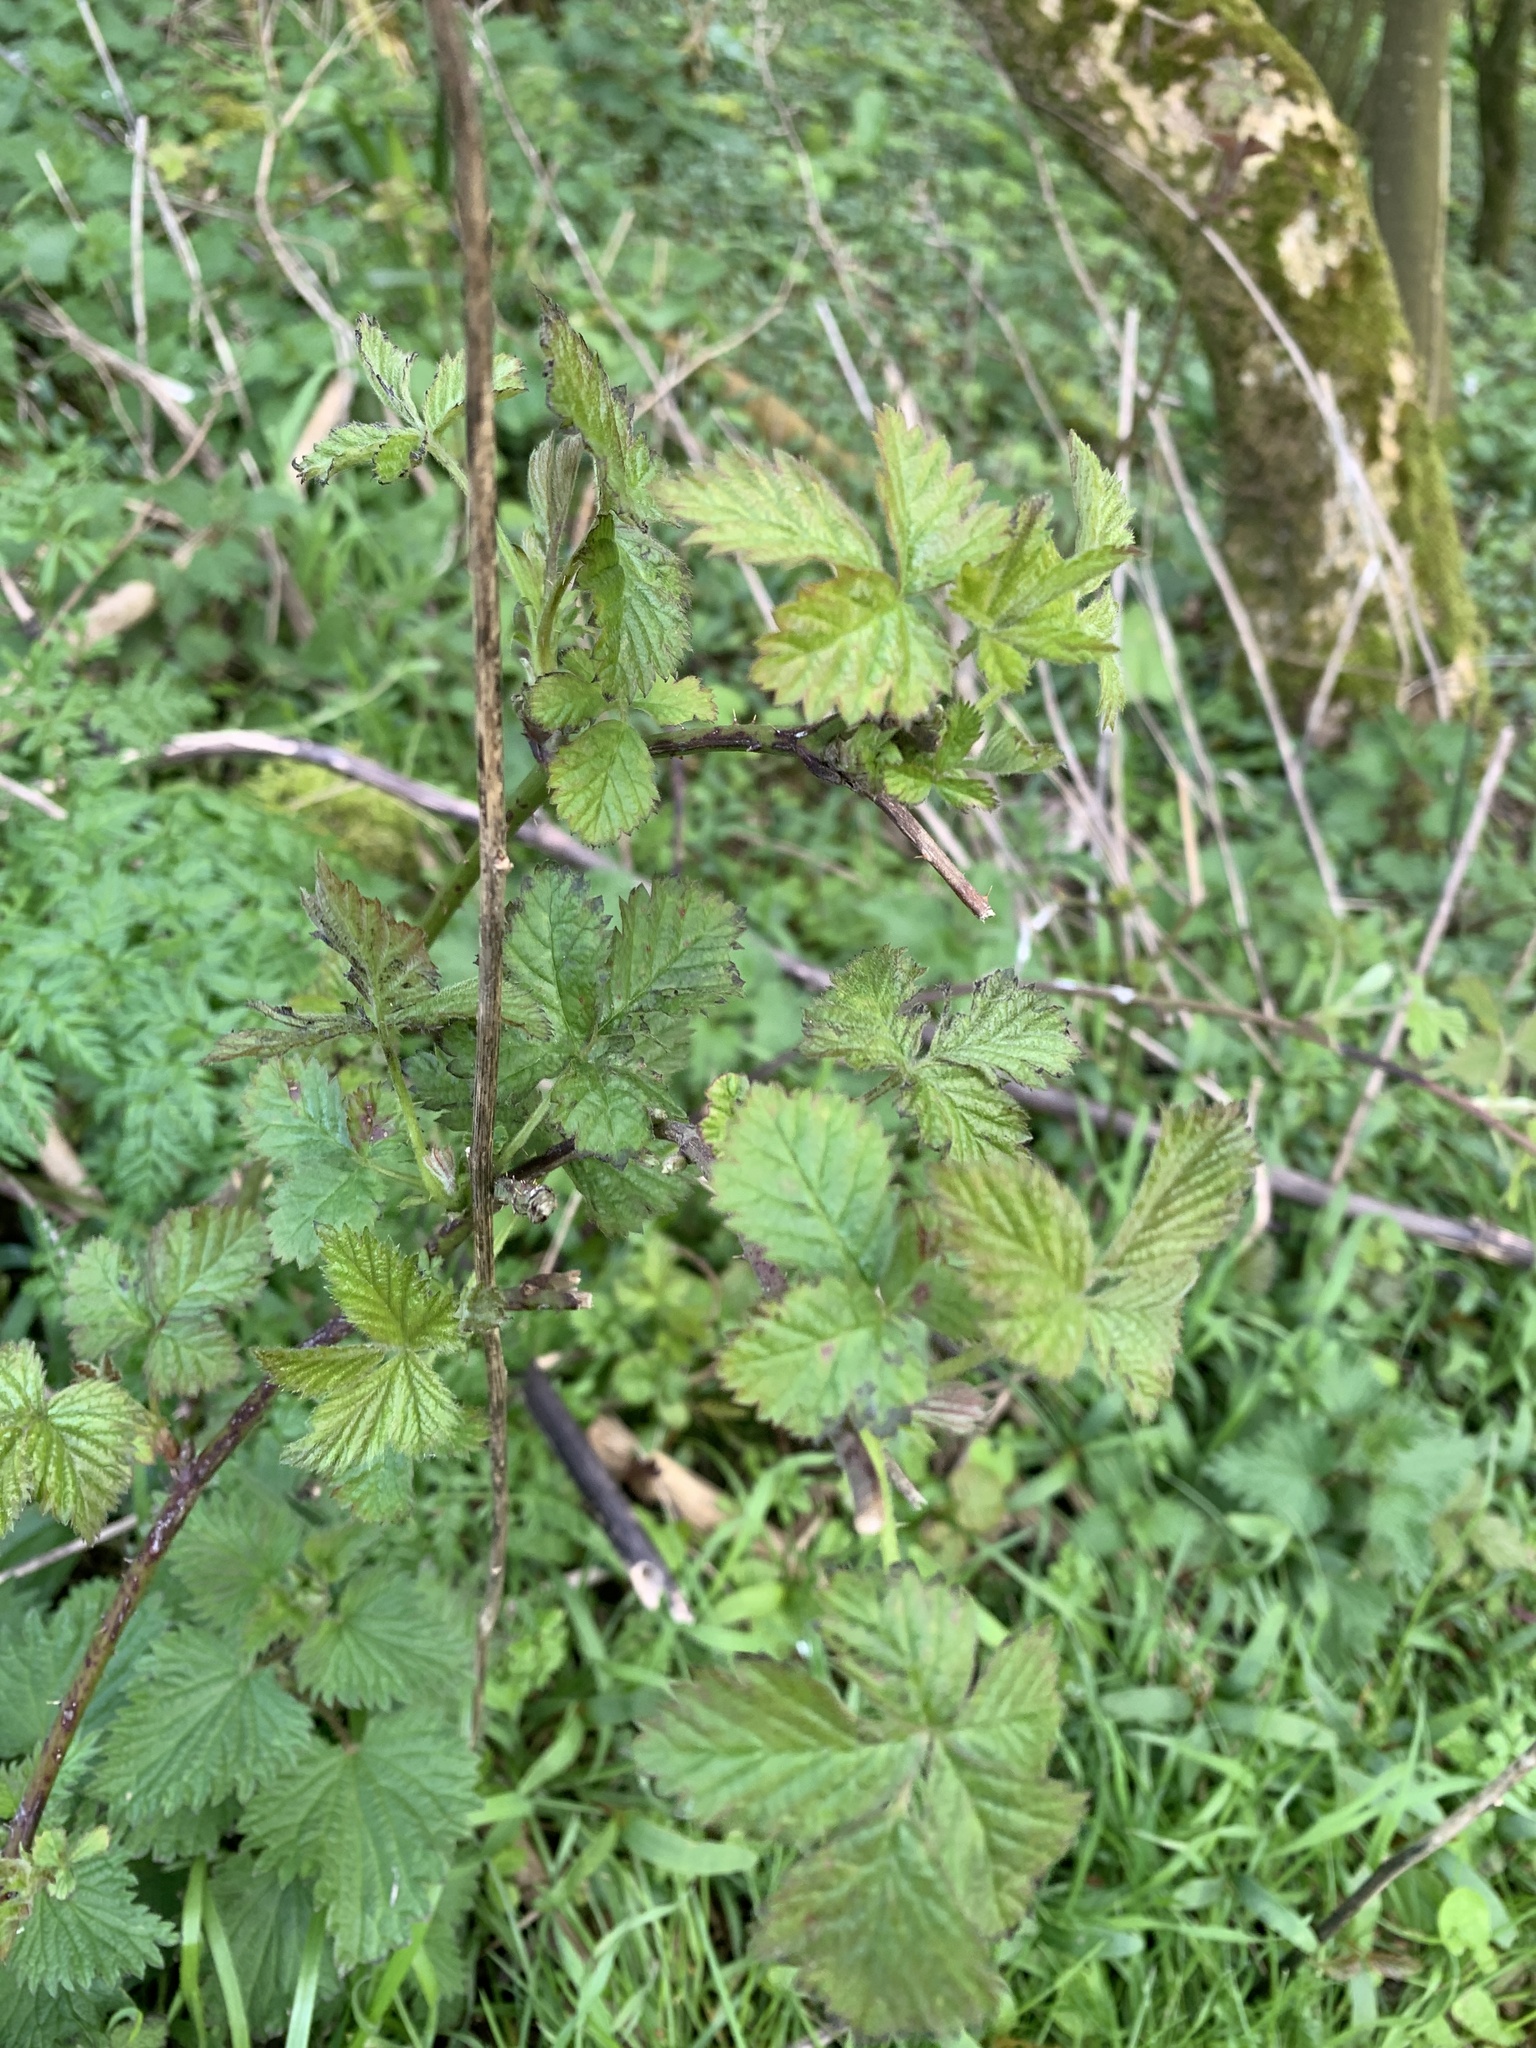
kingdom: Plantae
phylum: Tracheophyta
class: Magnoliopsida
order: Rosales
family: Rosaceae
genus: Rubus
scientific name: Rubus fruticosus
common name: Blackberry, bramble
